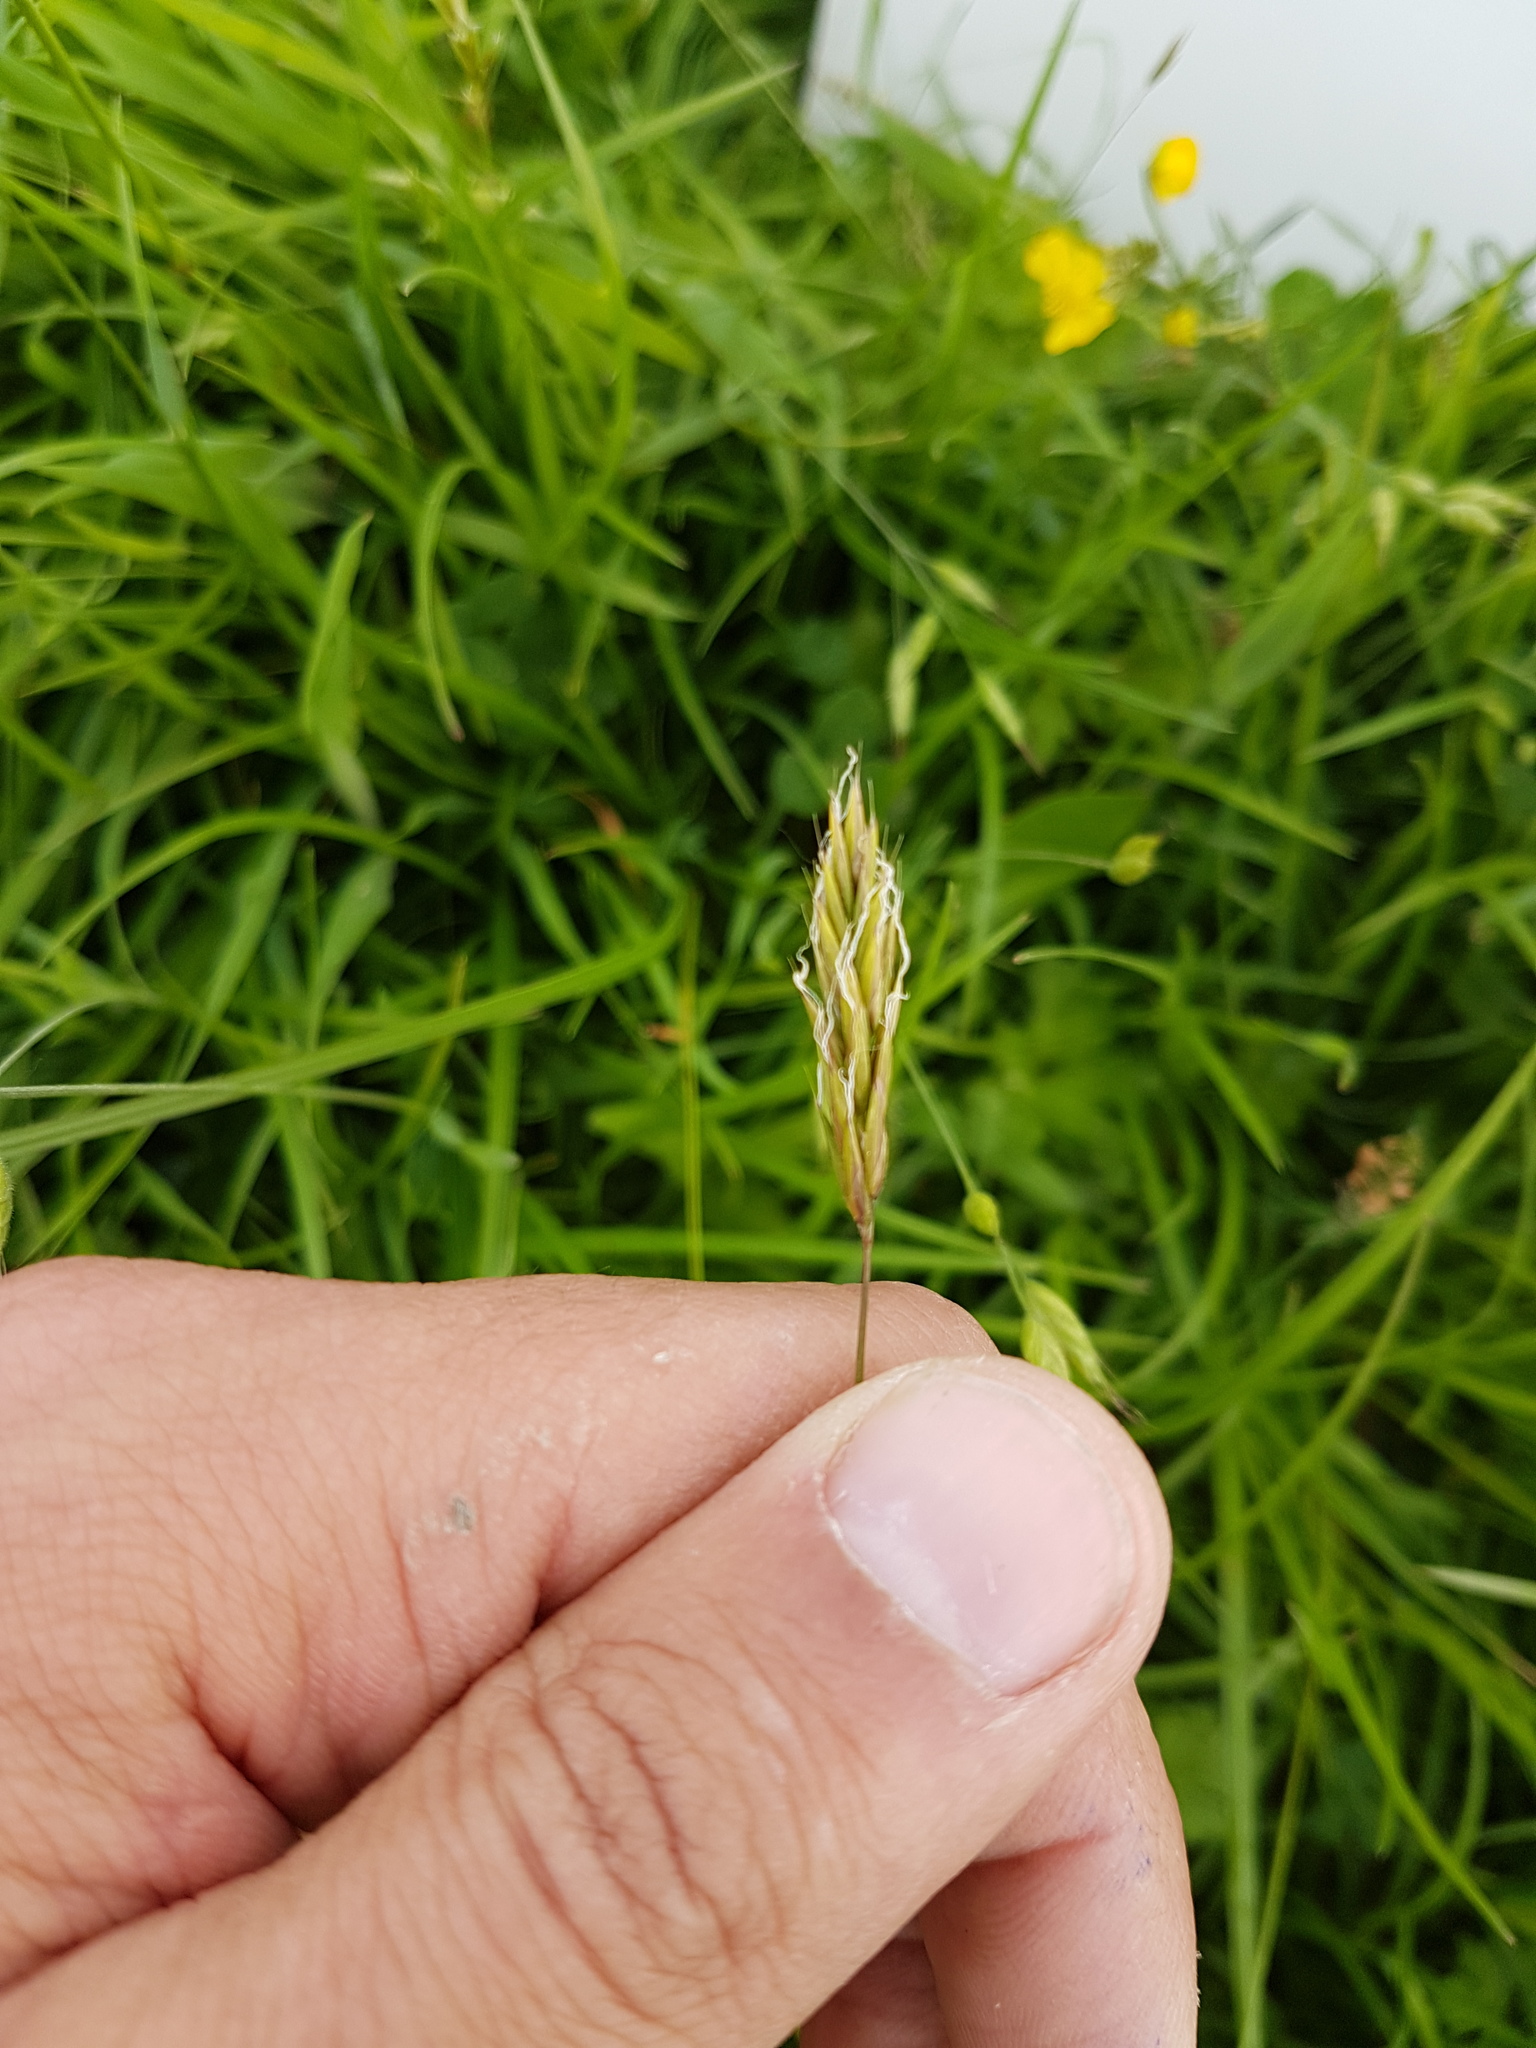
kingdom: Plantae
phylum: Tracheophyta
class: Liliopsida
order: Poales
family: Poaceae
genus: Anthoxanthum
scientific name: Anthoxanthum odoratum
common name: Sweet vernalgrass
